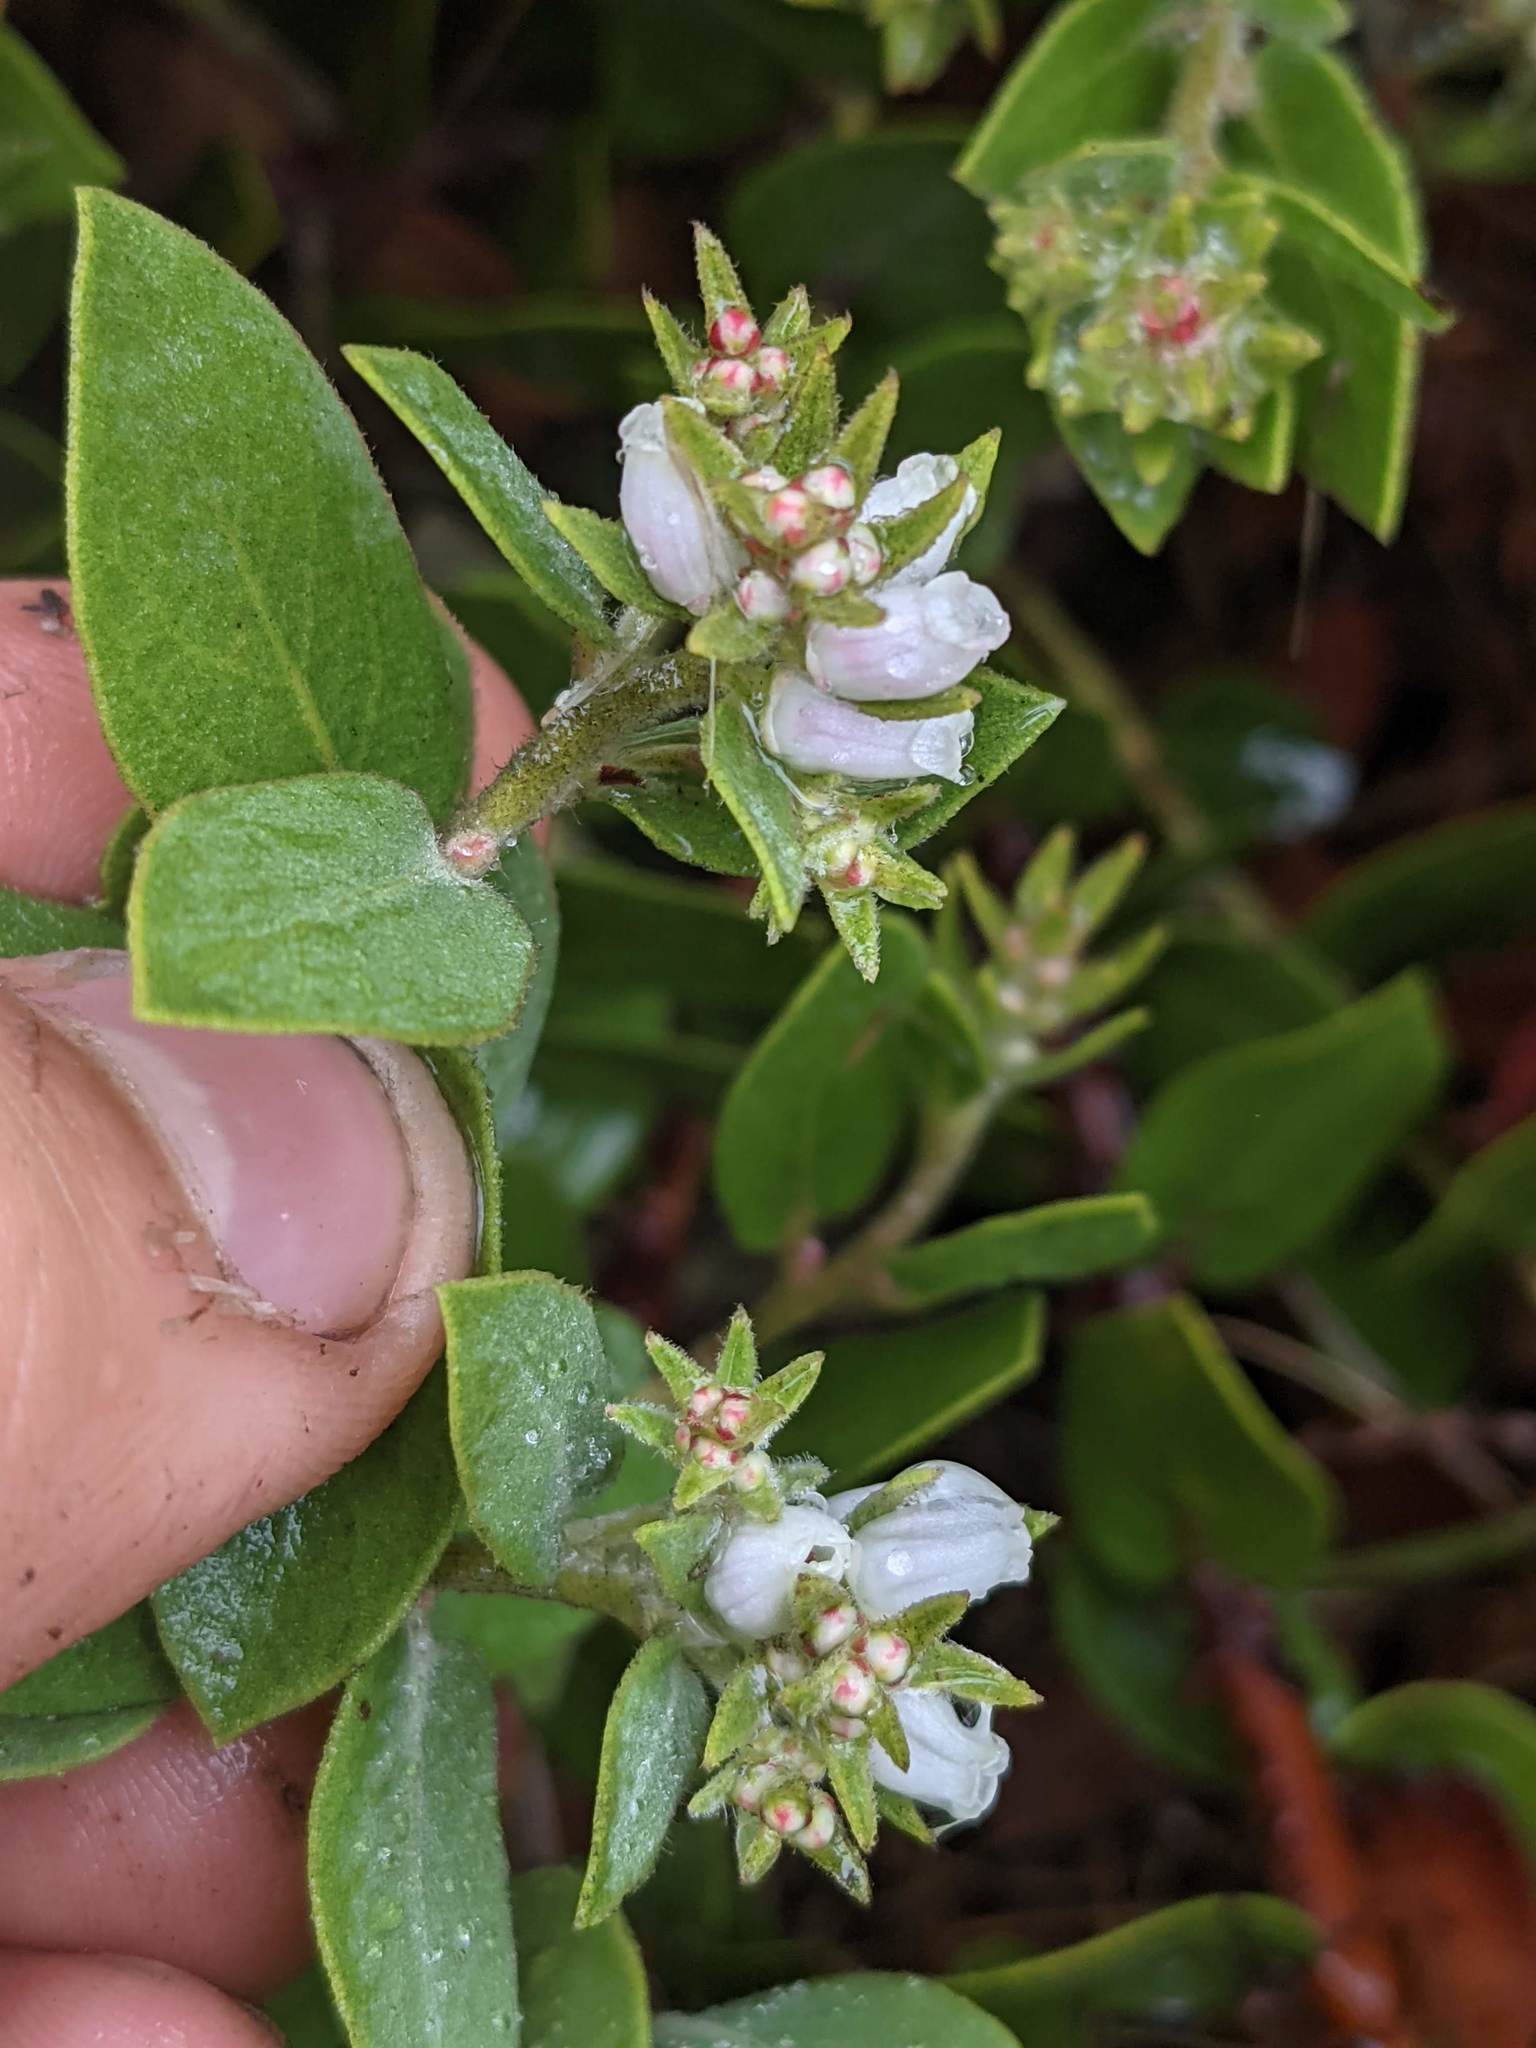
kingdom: Plantae
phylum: Tracheophyta
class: Magnoliopsida
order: Ericales
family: Ericaceae
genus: Arctostaphylos
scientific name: Arctostaphylos cruzensis
